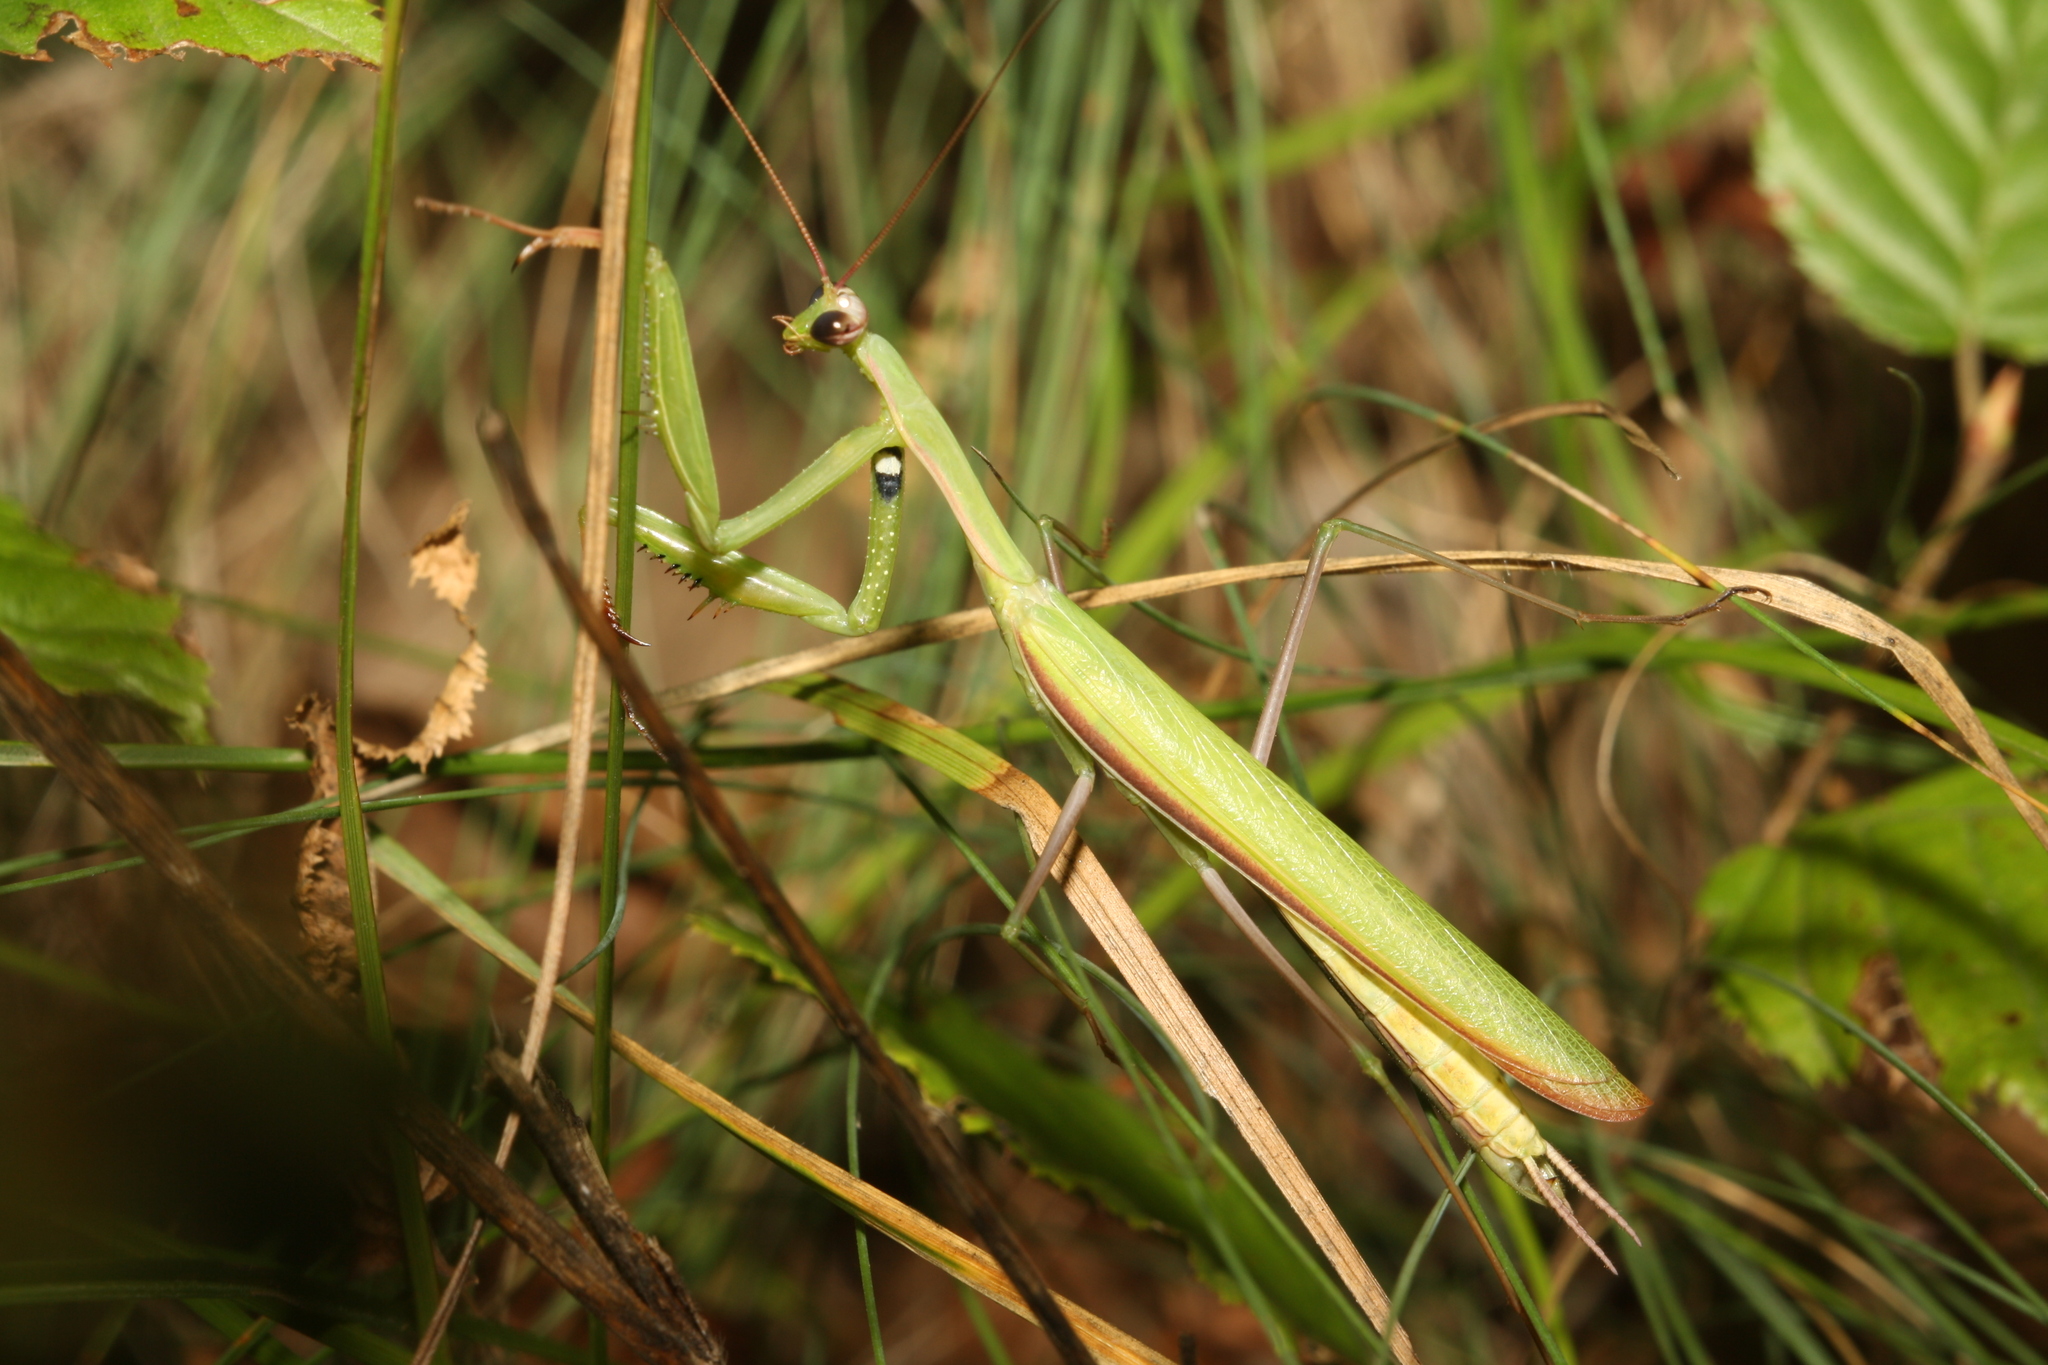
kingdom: Animalia
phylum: Arthropoda
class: Insecta
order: Mantodea
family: Mantidae
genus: Mantis
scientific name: Mantis religiosa
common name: Praying mantis
